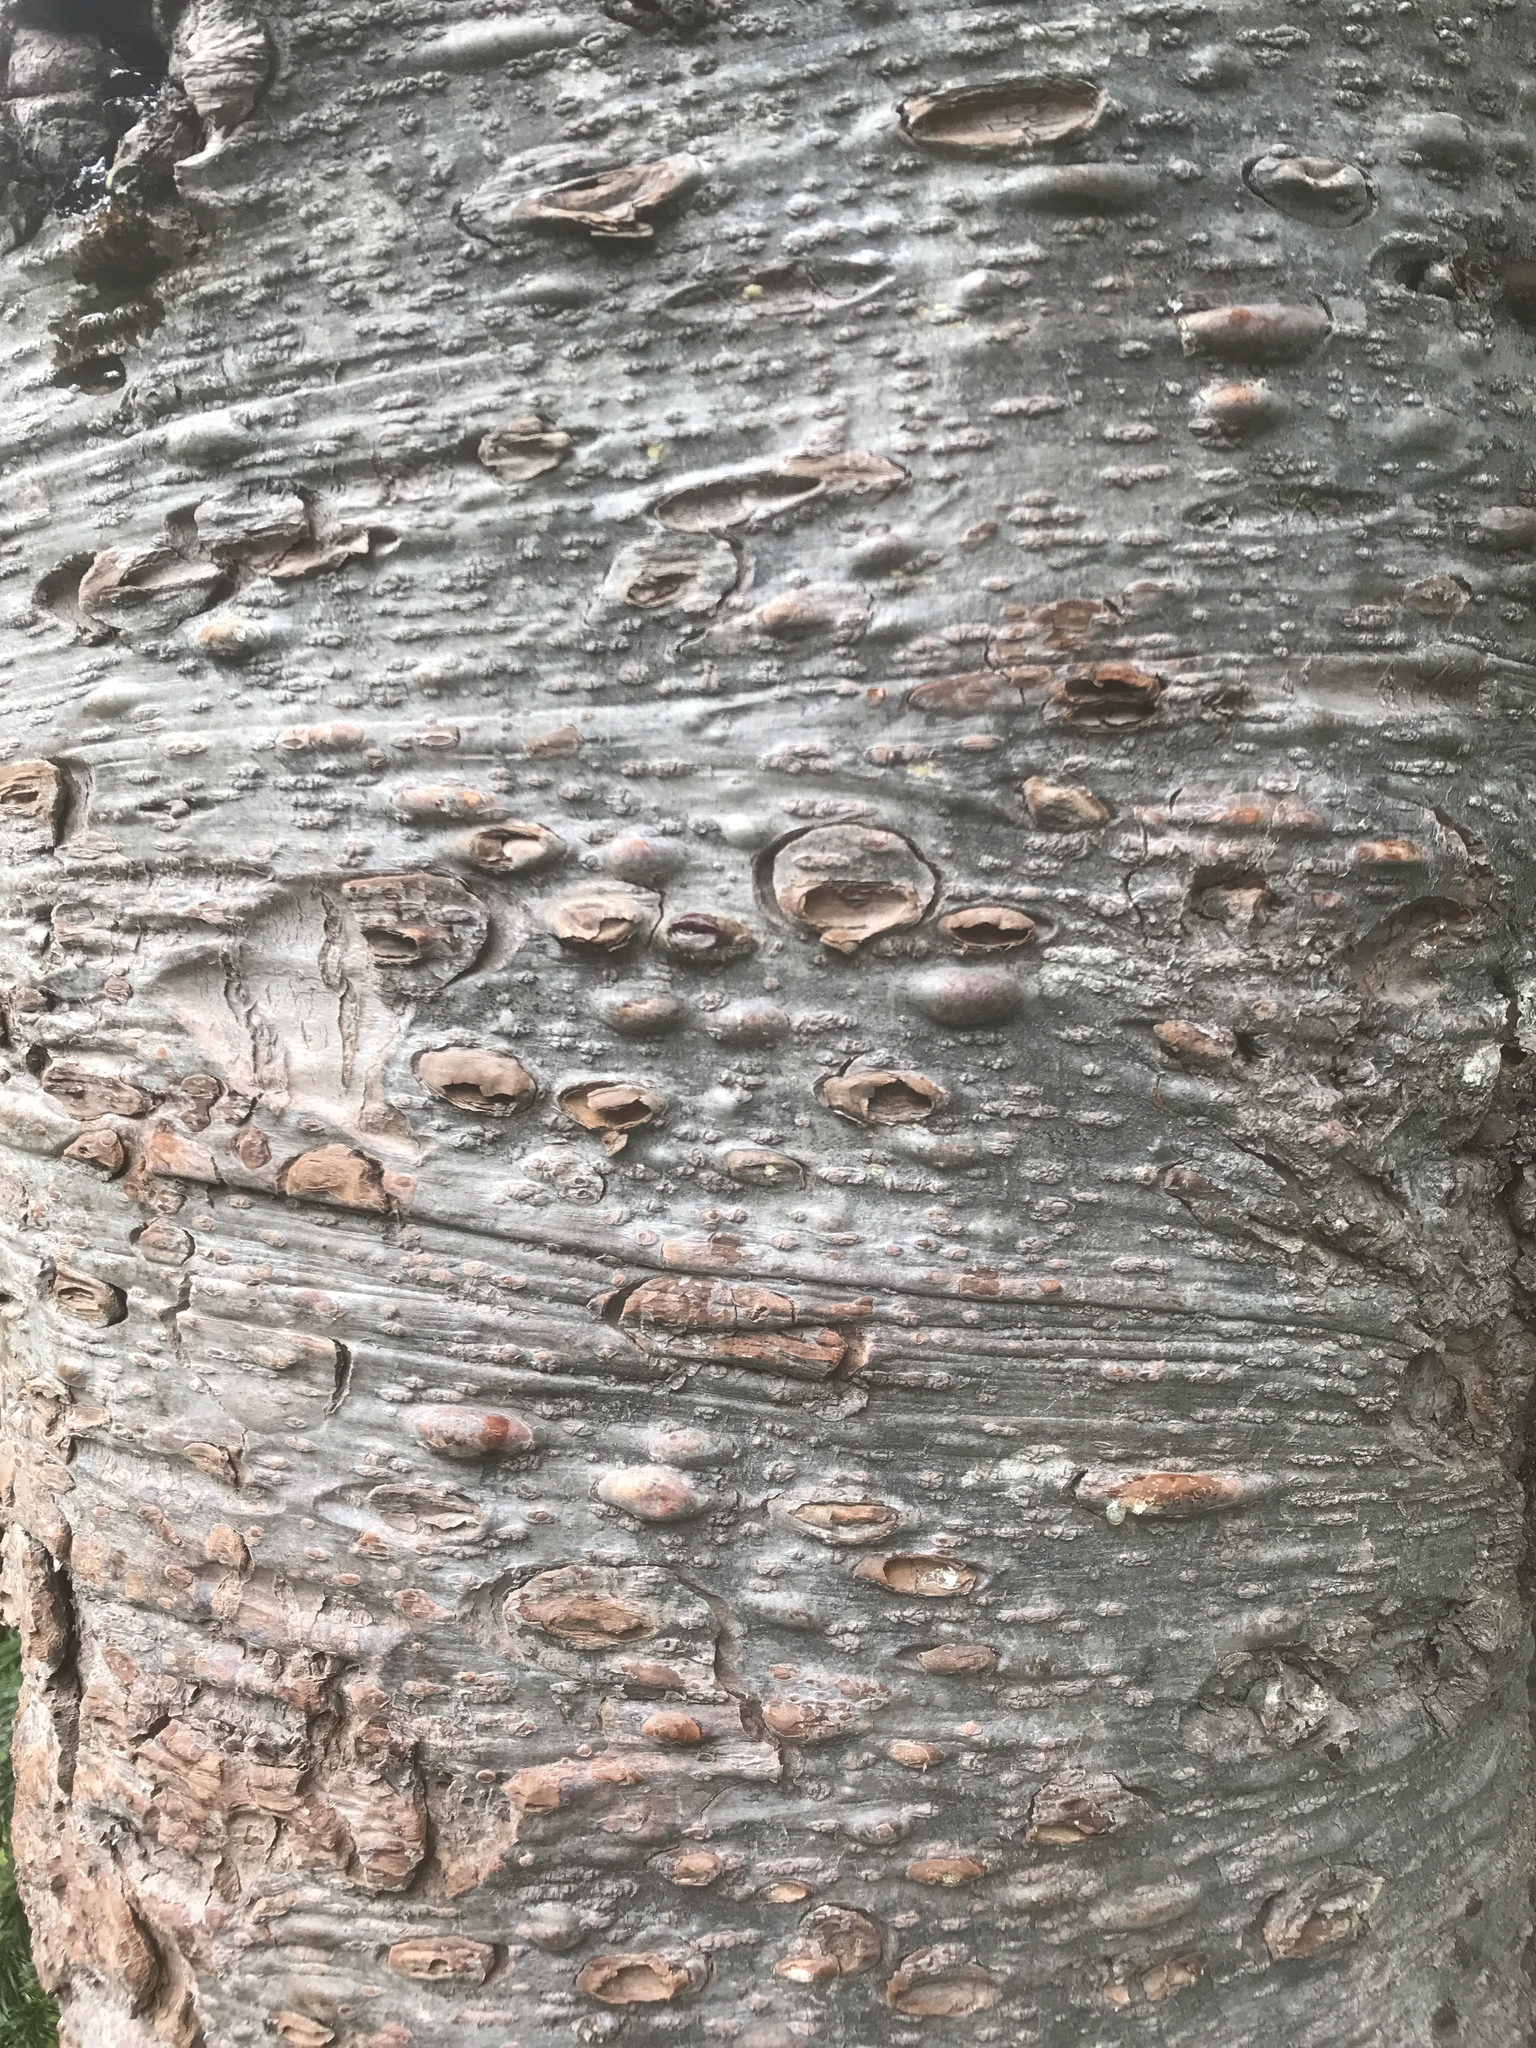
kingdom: Plantae
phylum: Tracheophyta
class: Pinopsida
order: Pinales
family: Pinaceae
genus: Abies
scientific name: Abies amabilis
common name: Pacific silver fir
